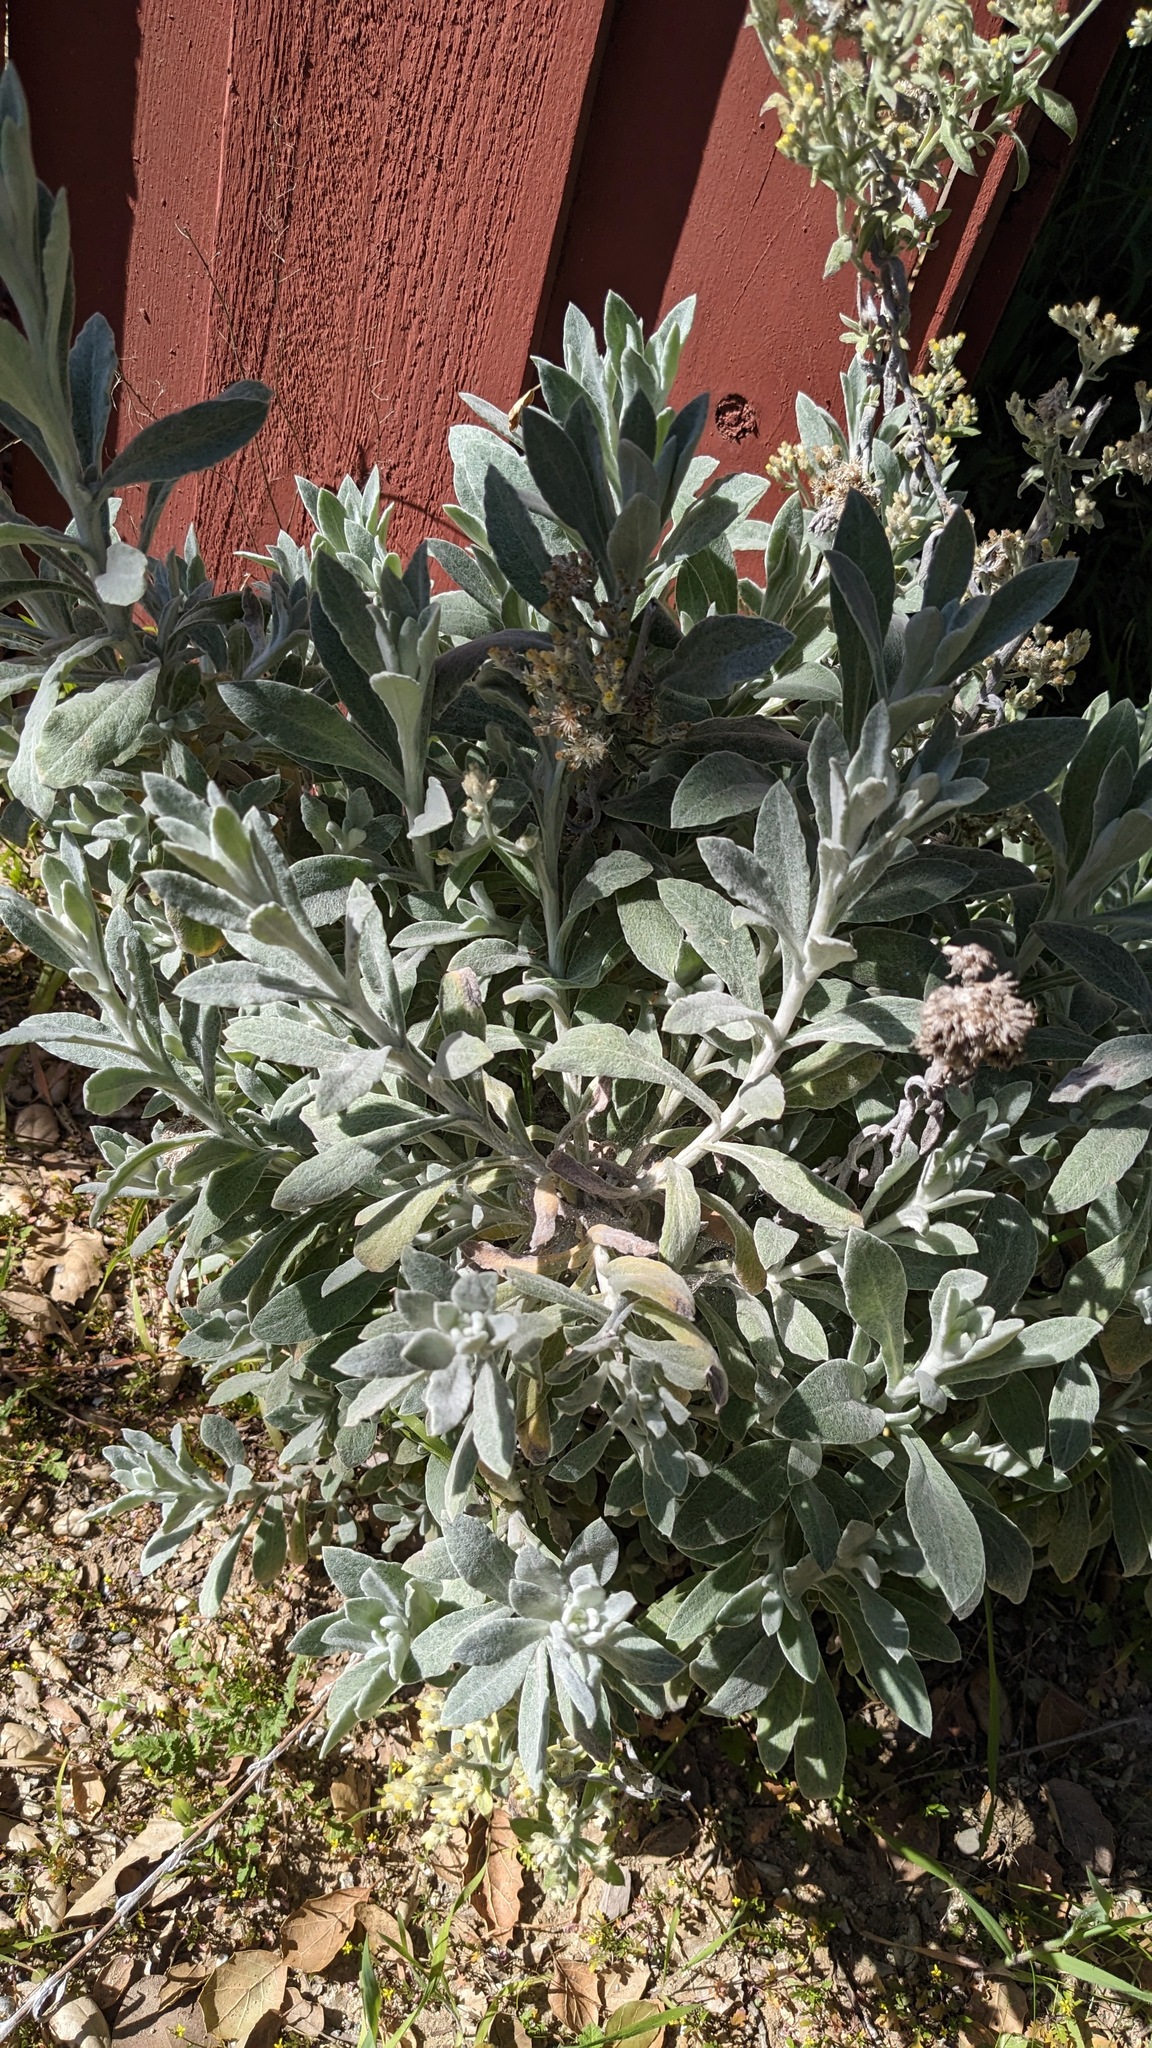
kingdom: Plantae
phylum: Tracheophyta
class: Magnoliopsida
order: Asterales
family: Asteraceae
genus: Pseudognaphalium
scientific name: Pseudognaphalium microcephalum
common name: San diego rabbit-tobacco
